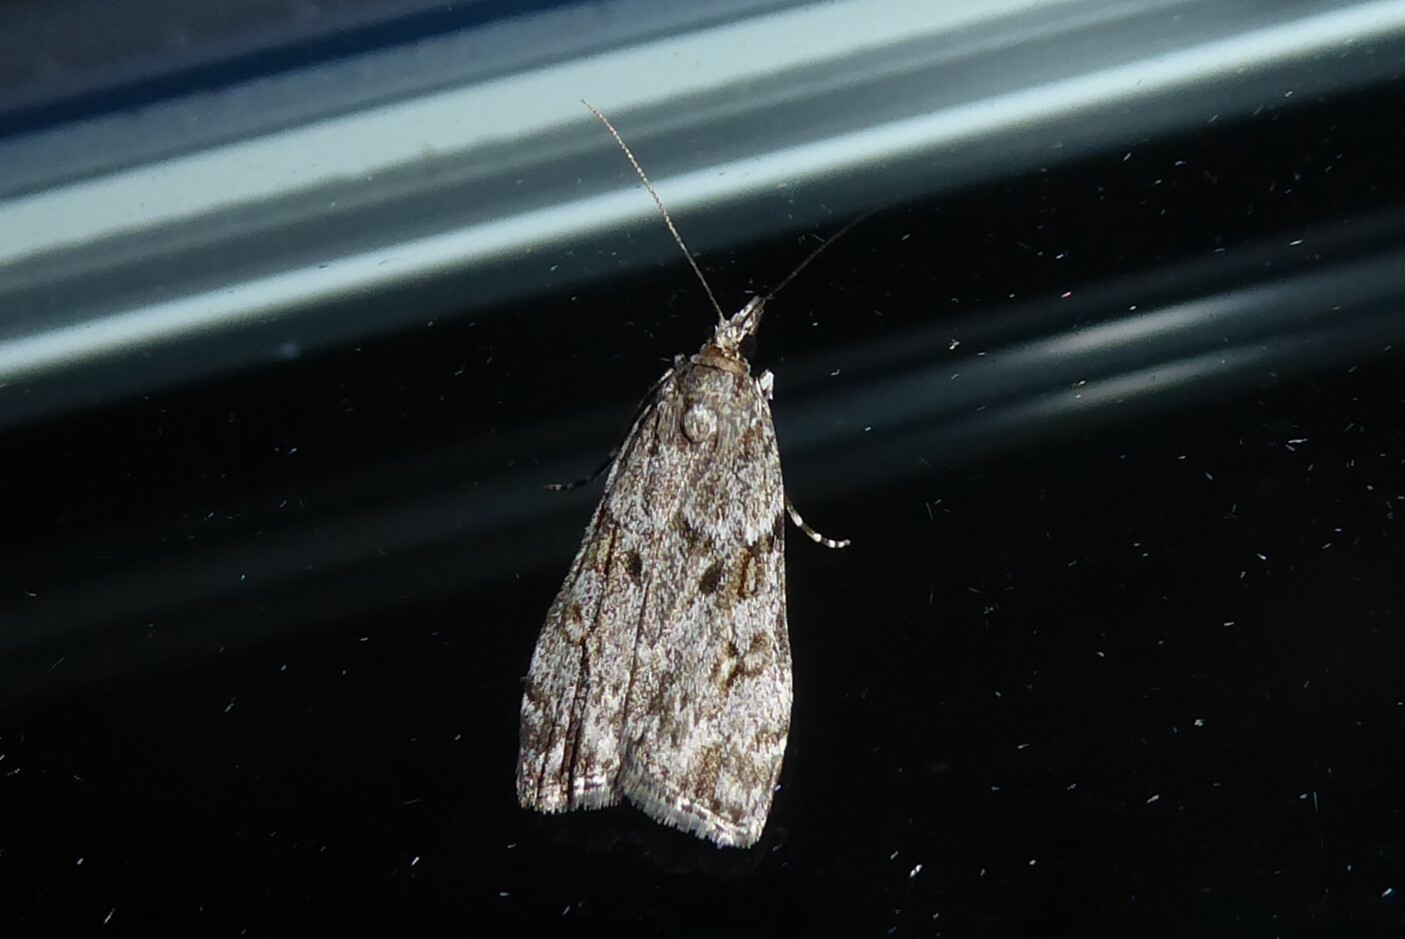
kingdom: Animalia
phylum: Arthropoda
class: Insecta
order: Lepidoptera
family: Crambidae
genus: Eudonia
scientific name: Eudonia cymatias
